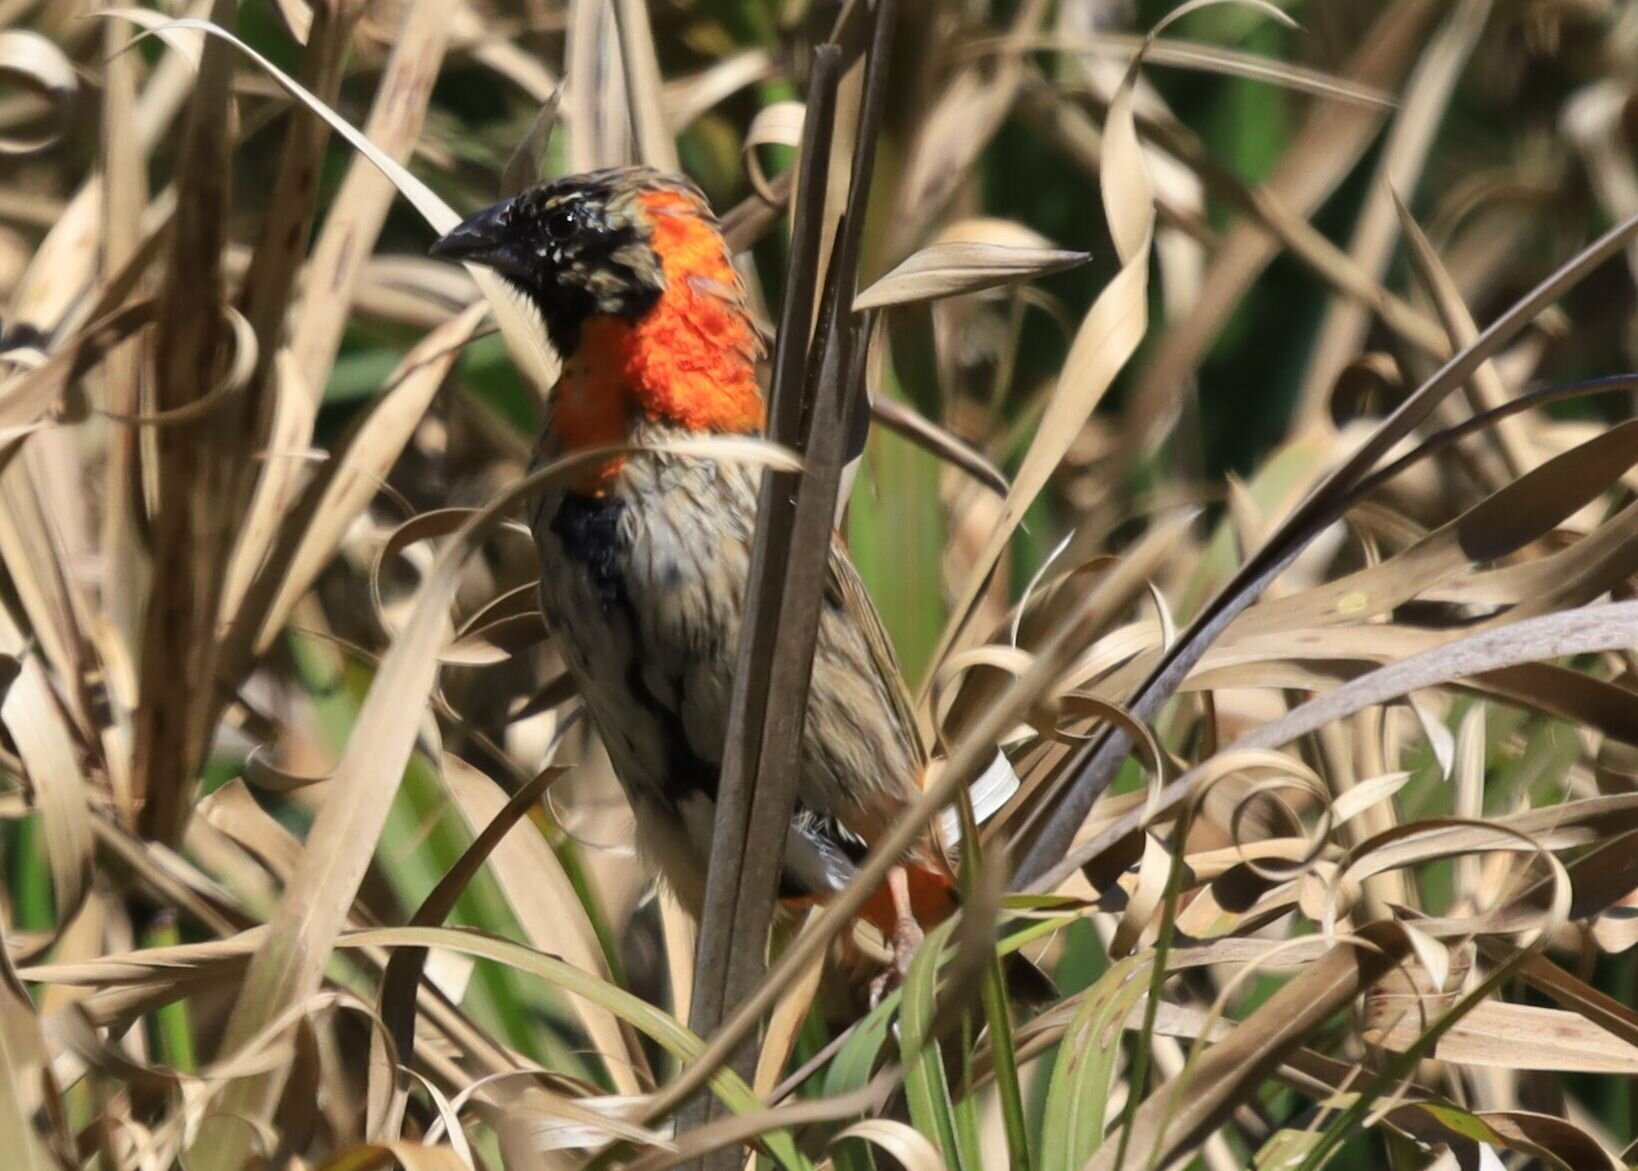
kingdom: Animalia
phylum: Chordata
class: Aves
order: Passeriformes
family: Ploceidae
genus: Euplectes
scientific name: Euplectes orix
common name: Southern red bishop
